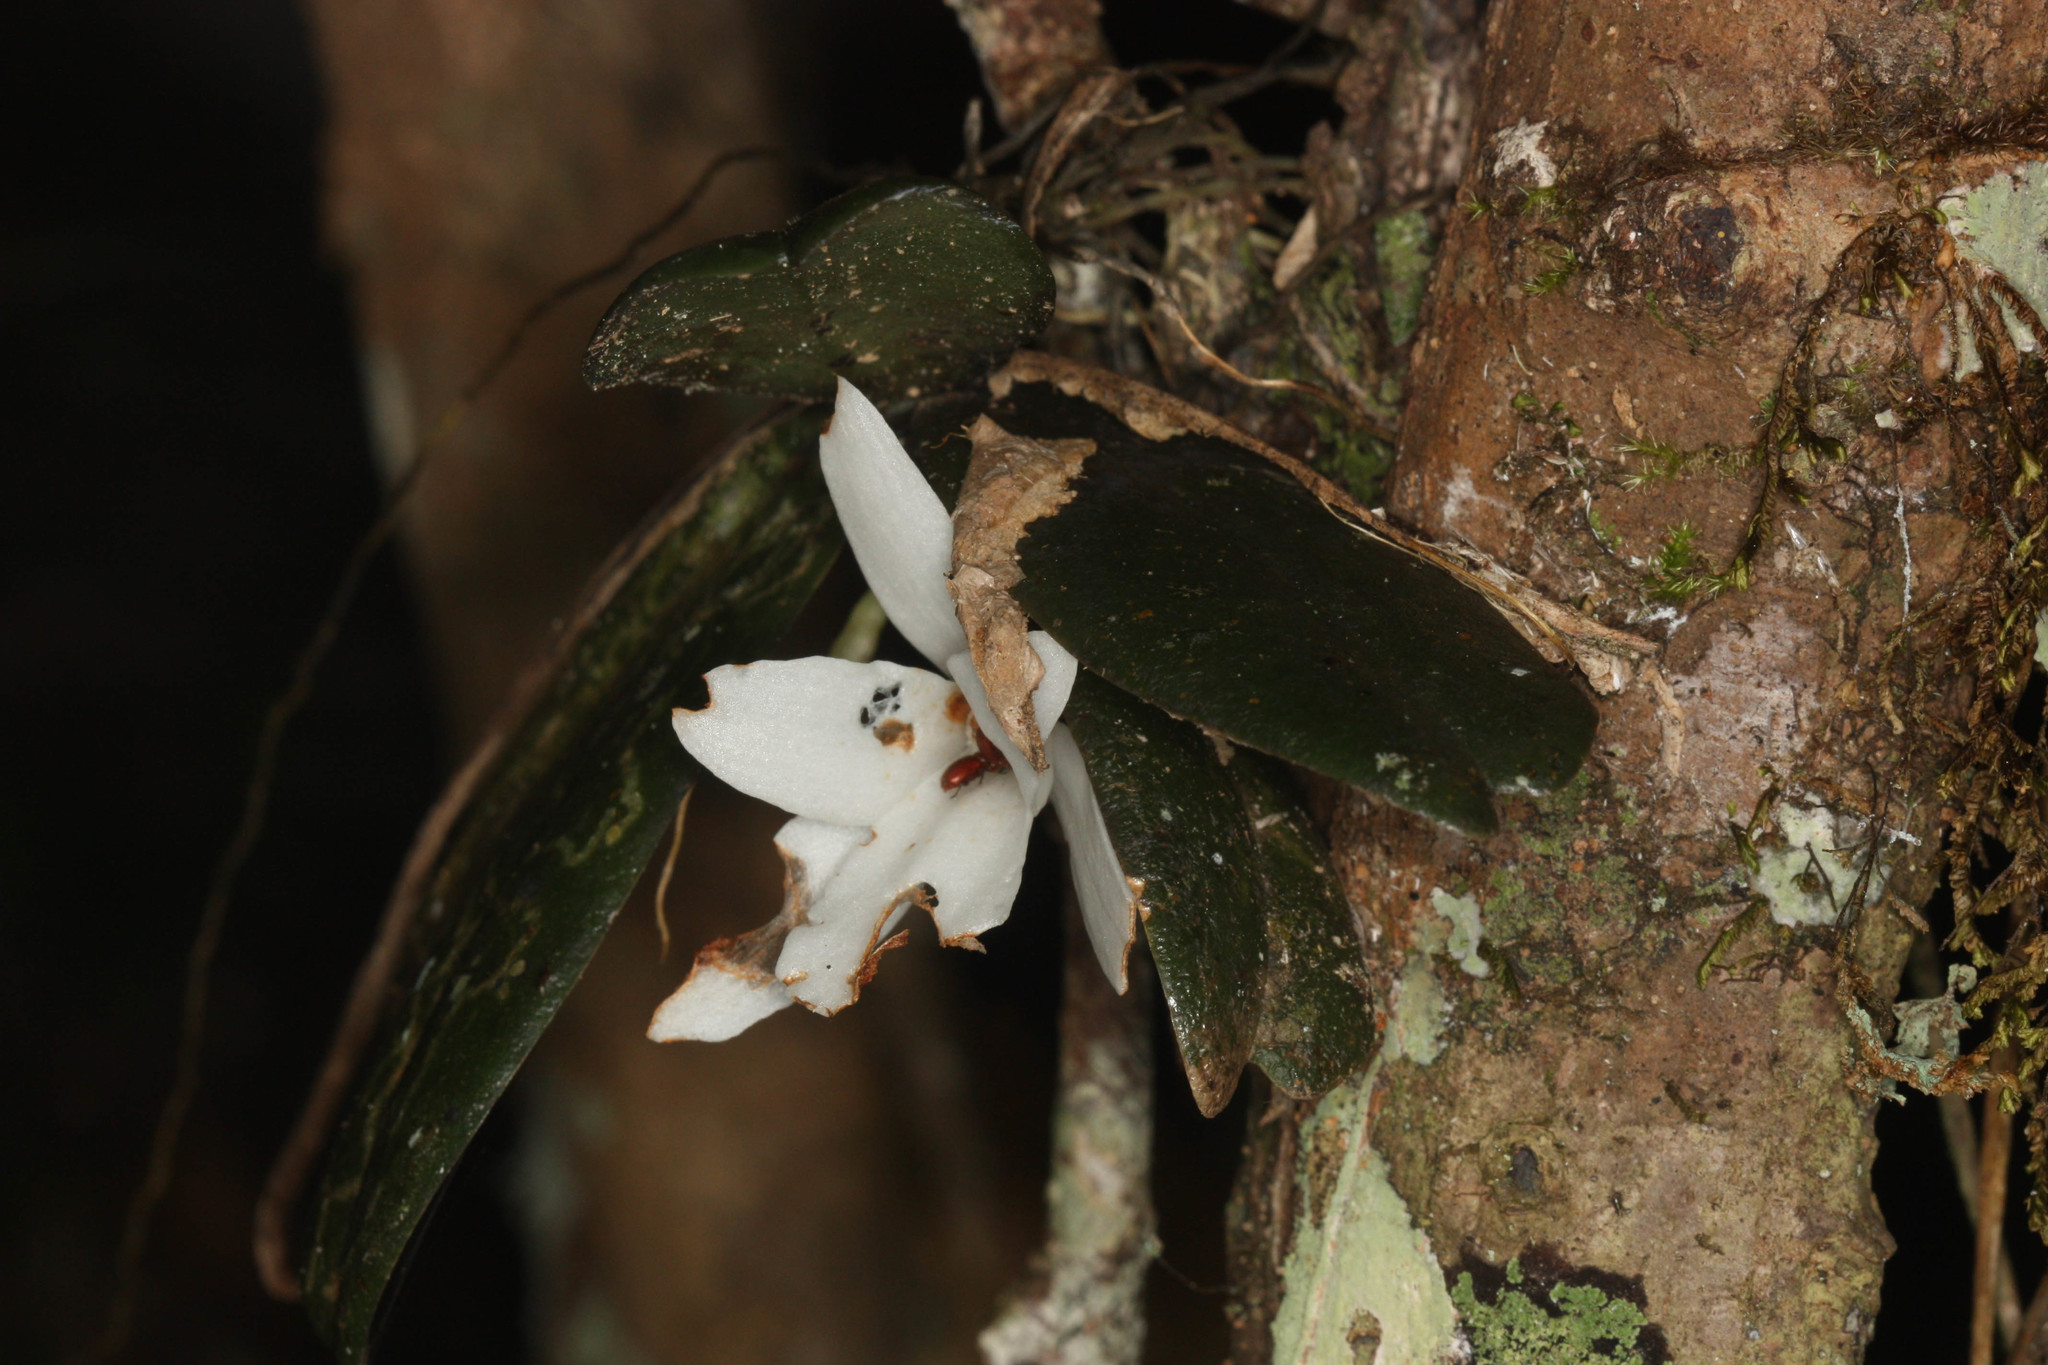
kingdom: Plantae
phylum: Tracheophyta
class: Liliopsida
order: Asparagales
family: Orchidaceae
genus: Aerangis
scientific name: Aerangis fastuosa
